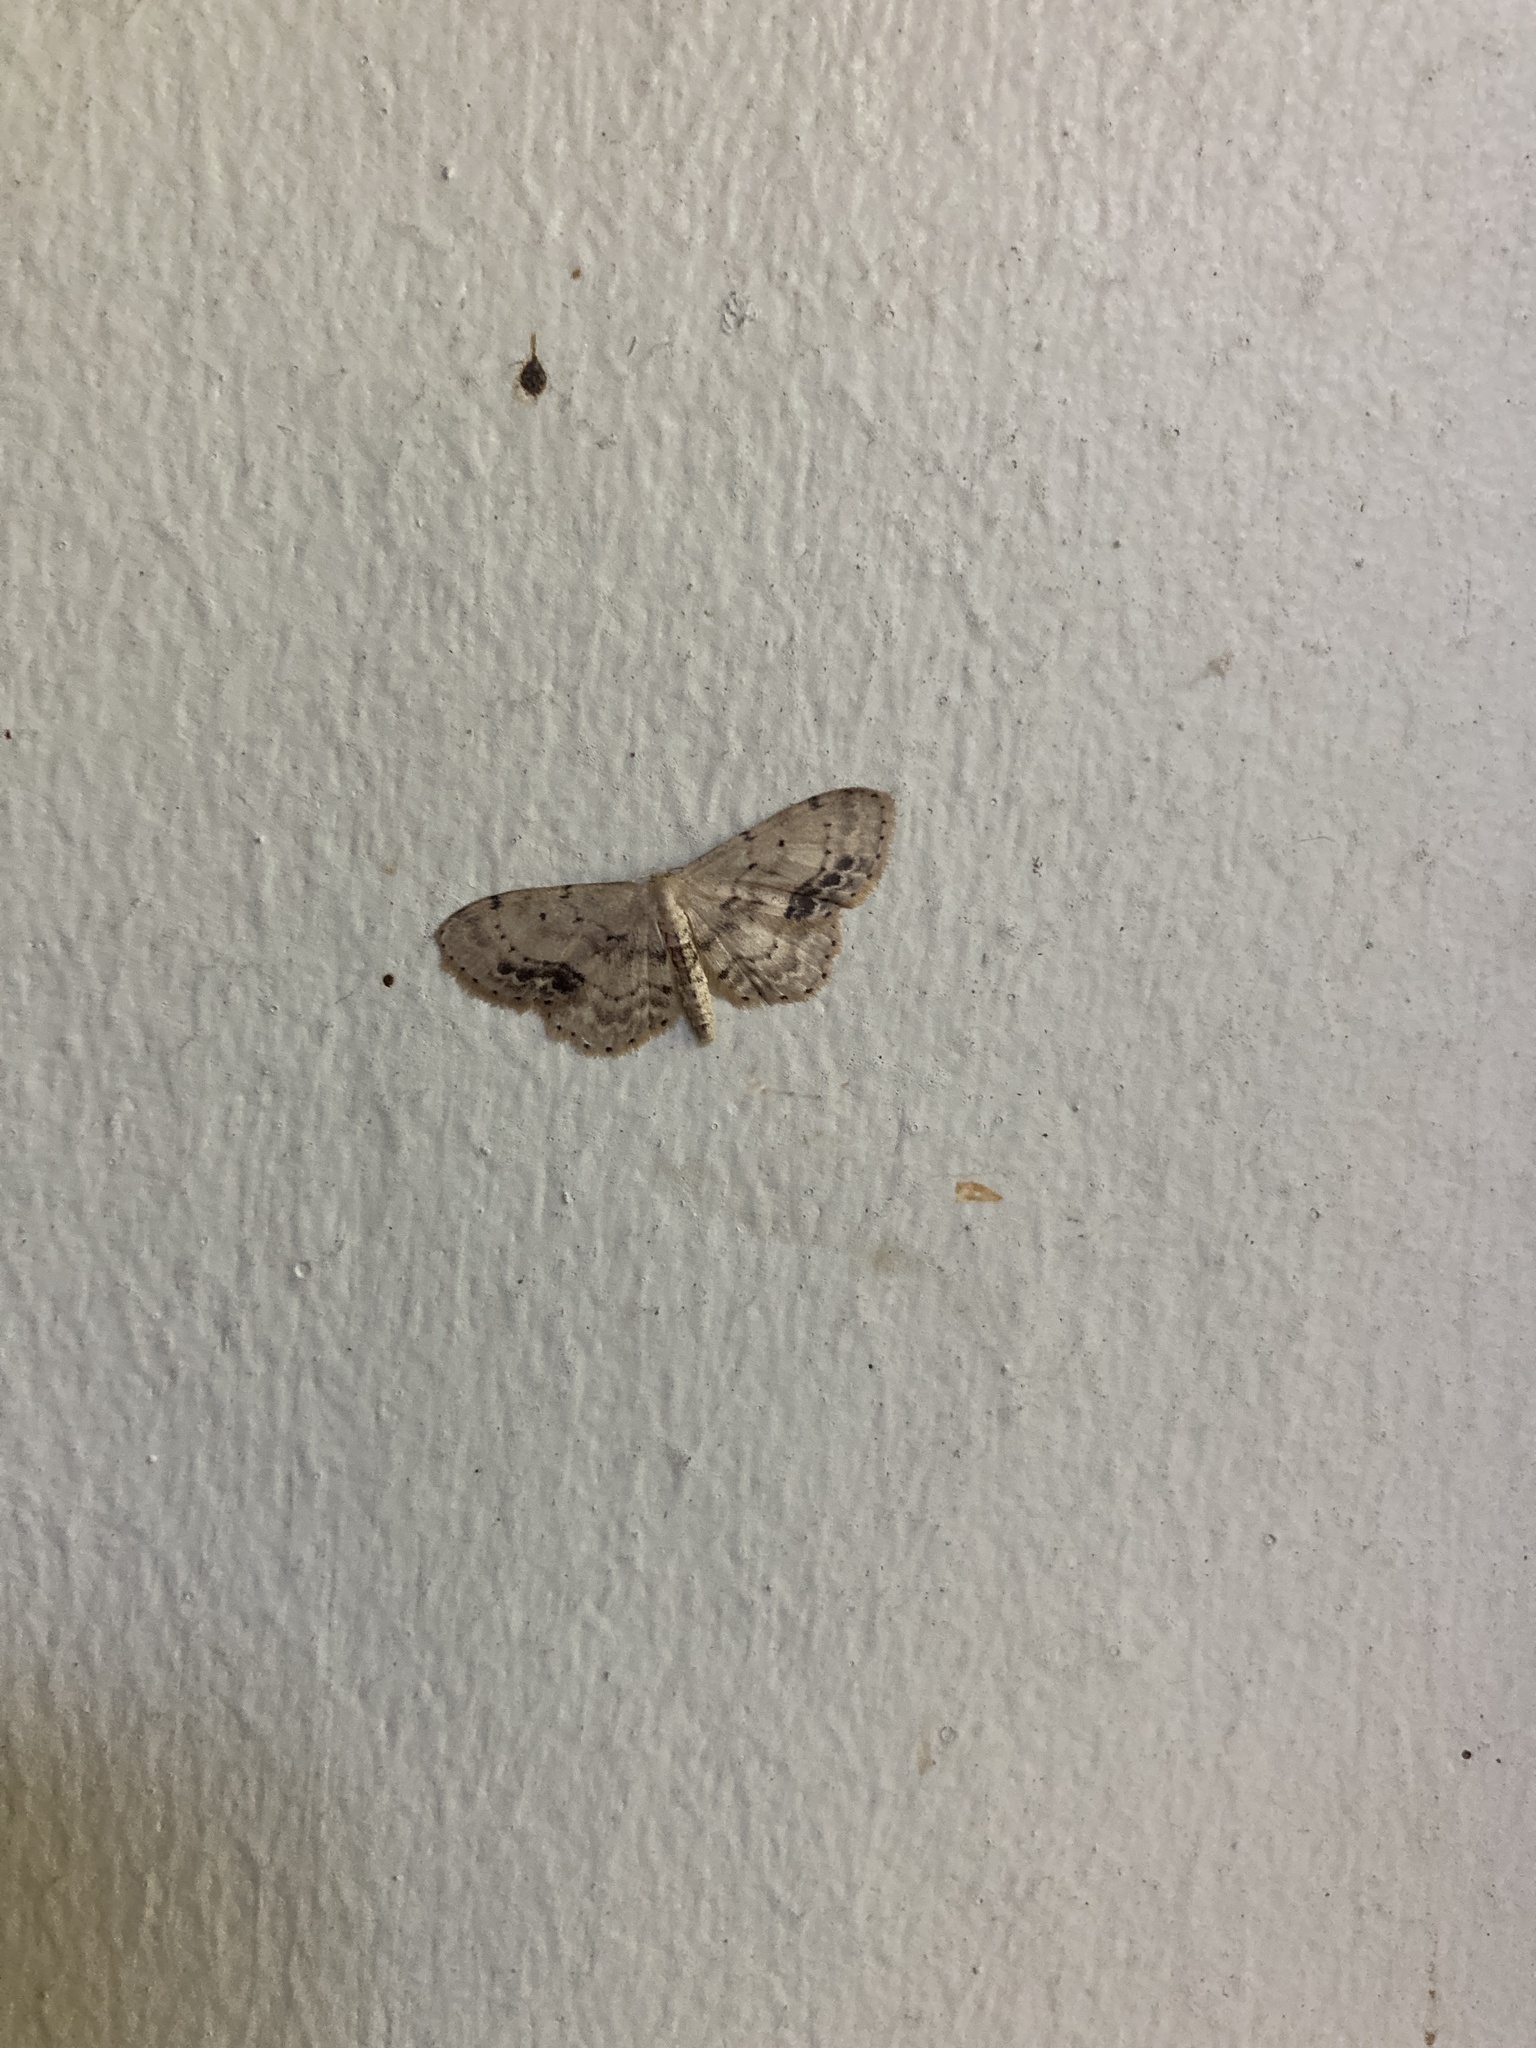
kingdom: Animalia
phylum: Arthropoda
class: Insecta
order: Lepidoptera
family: Geometridae
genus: Idaea
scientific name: Idaea dimidiata
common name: Single-dotted wave
